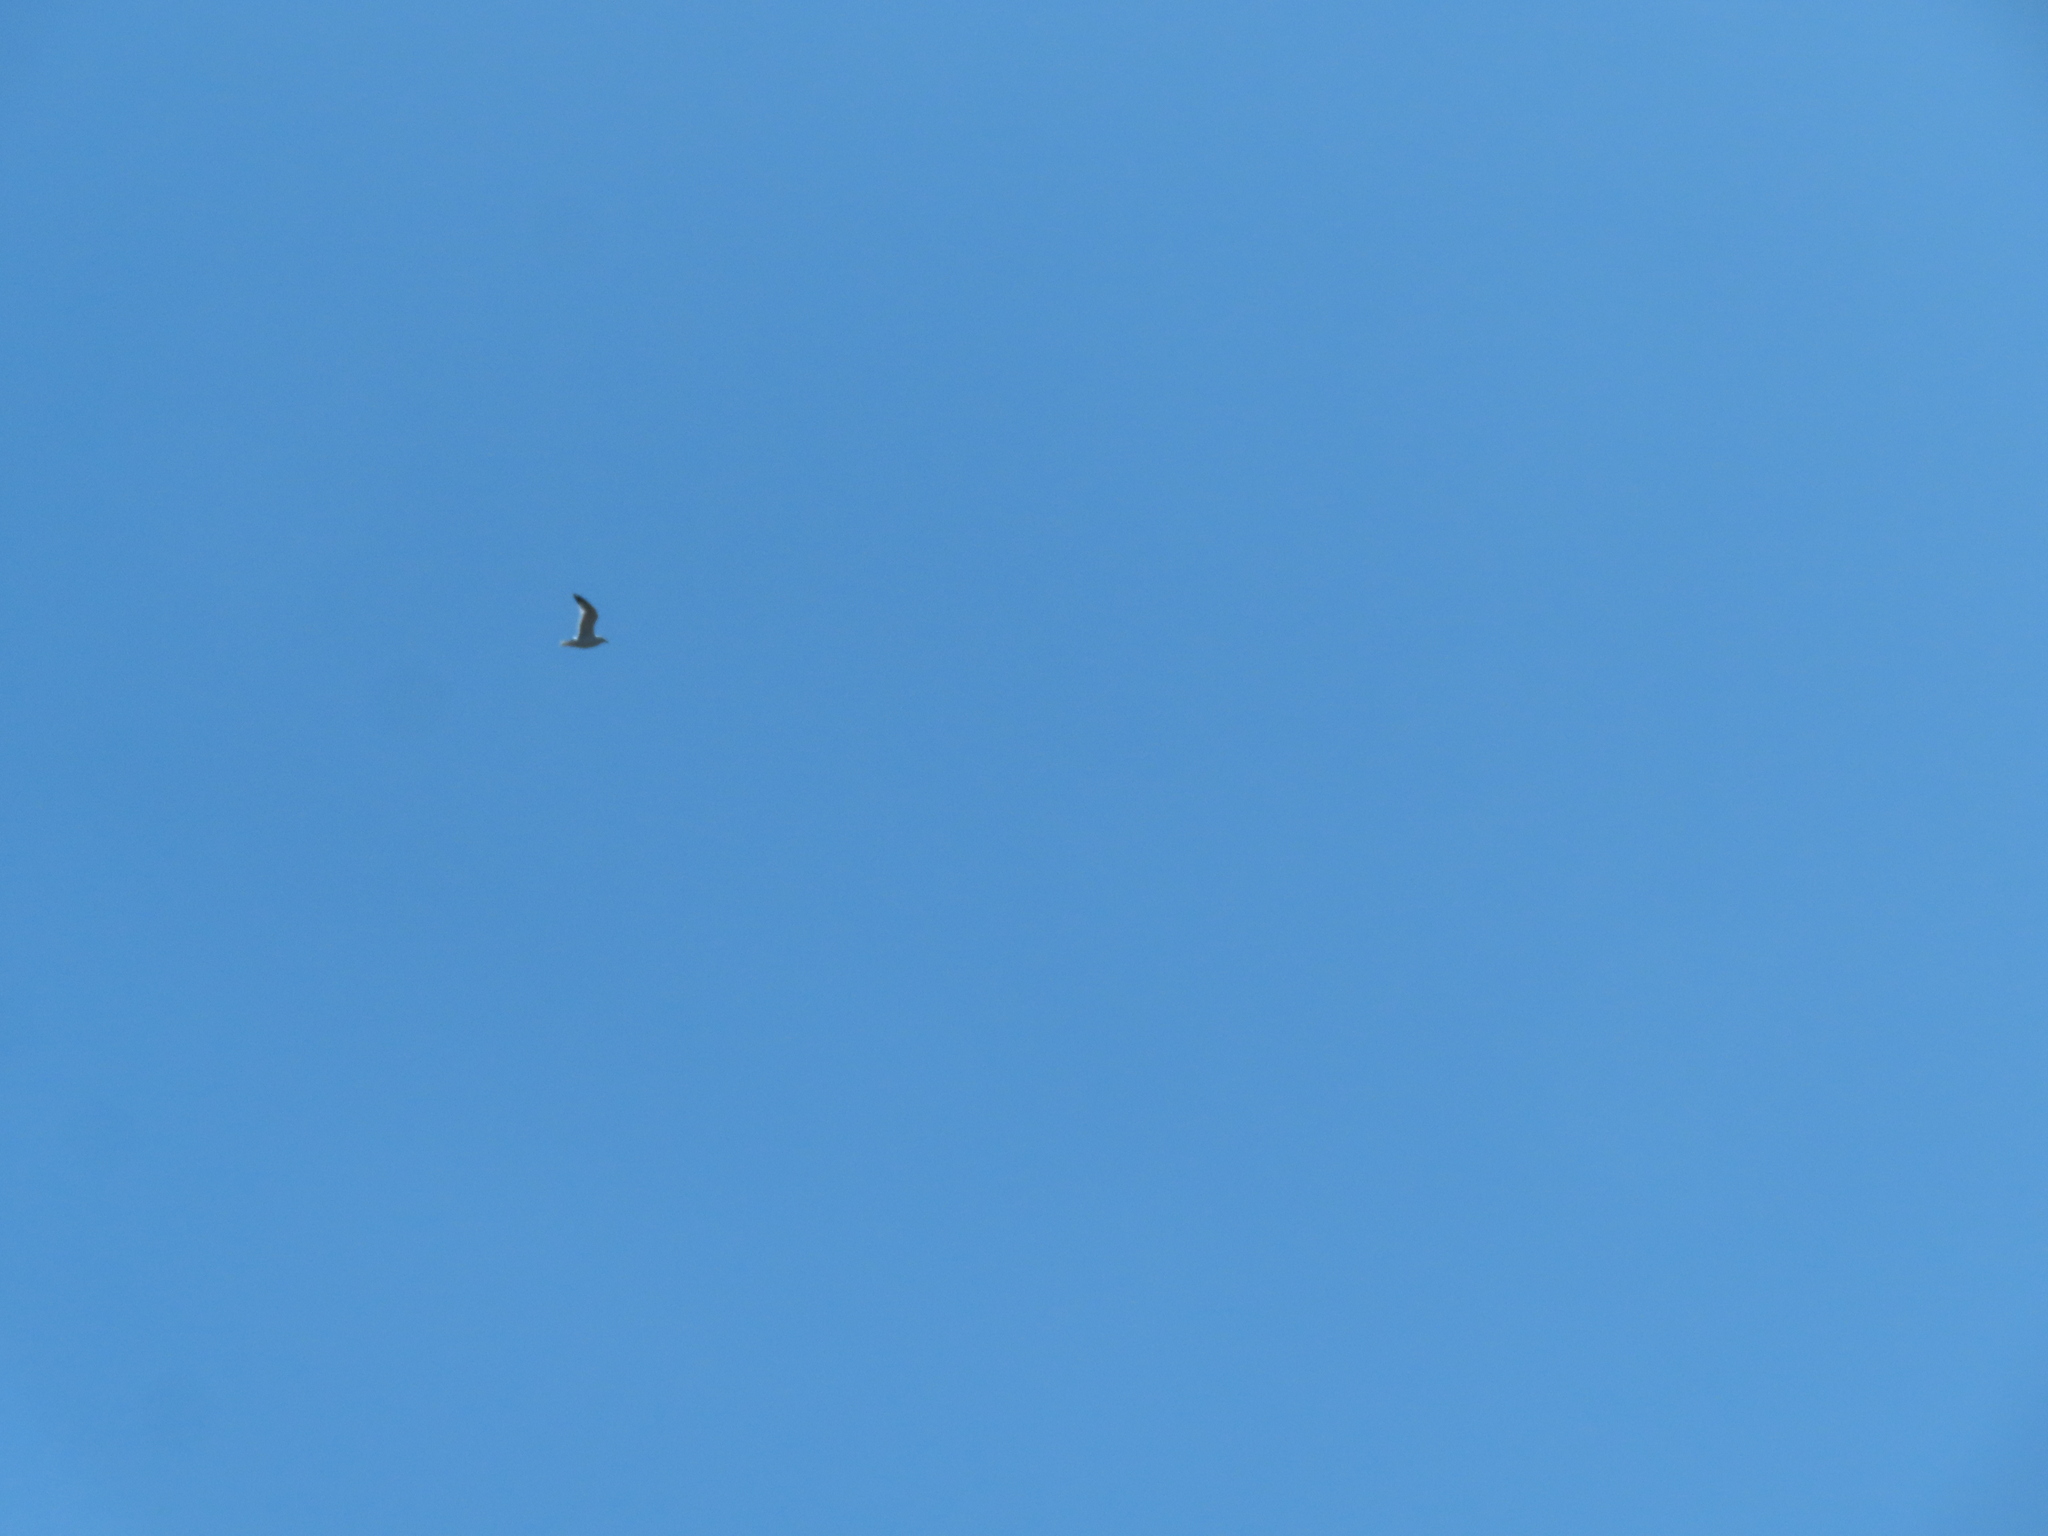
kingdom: Animalia
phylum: Chordata
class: Aves
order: Charadriiformes
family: Laridae
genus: Larus
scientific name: Larus
